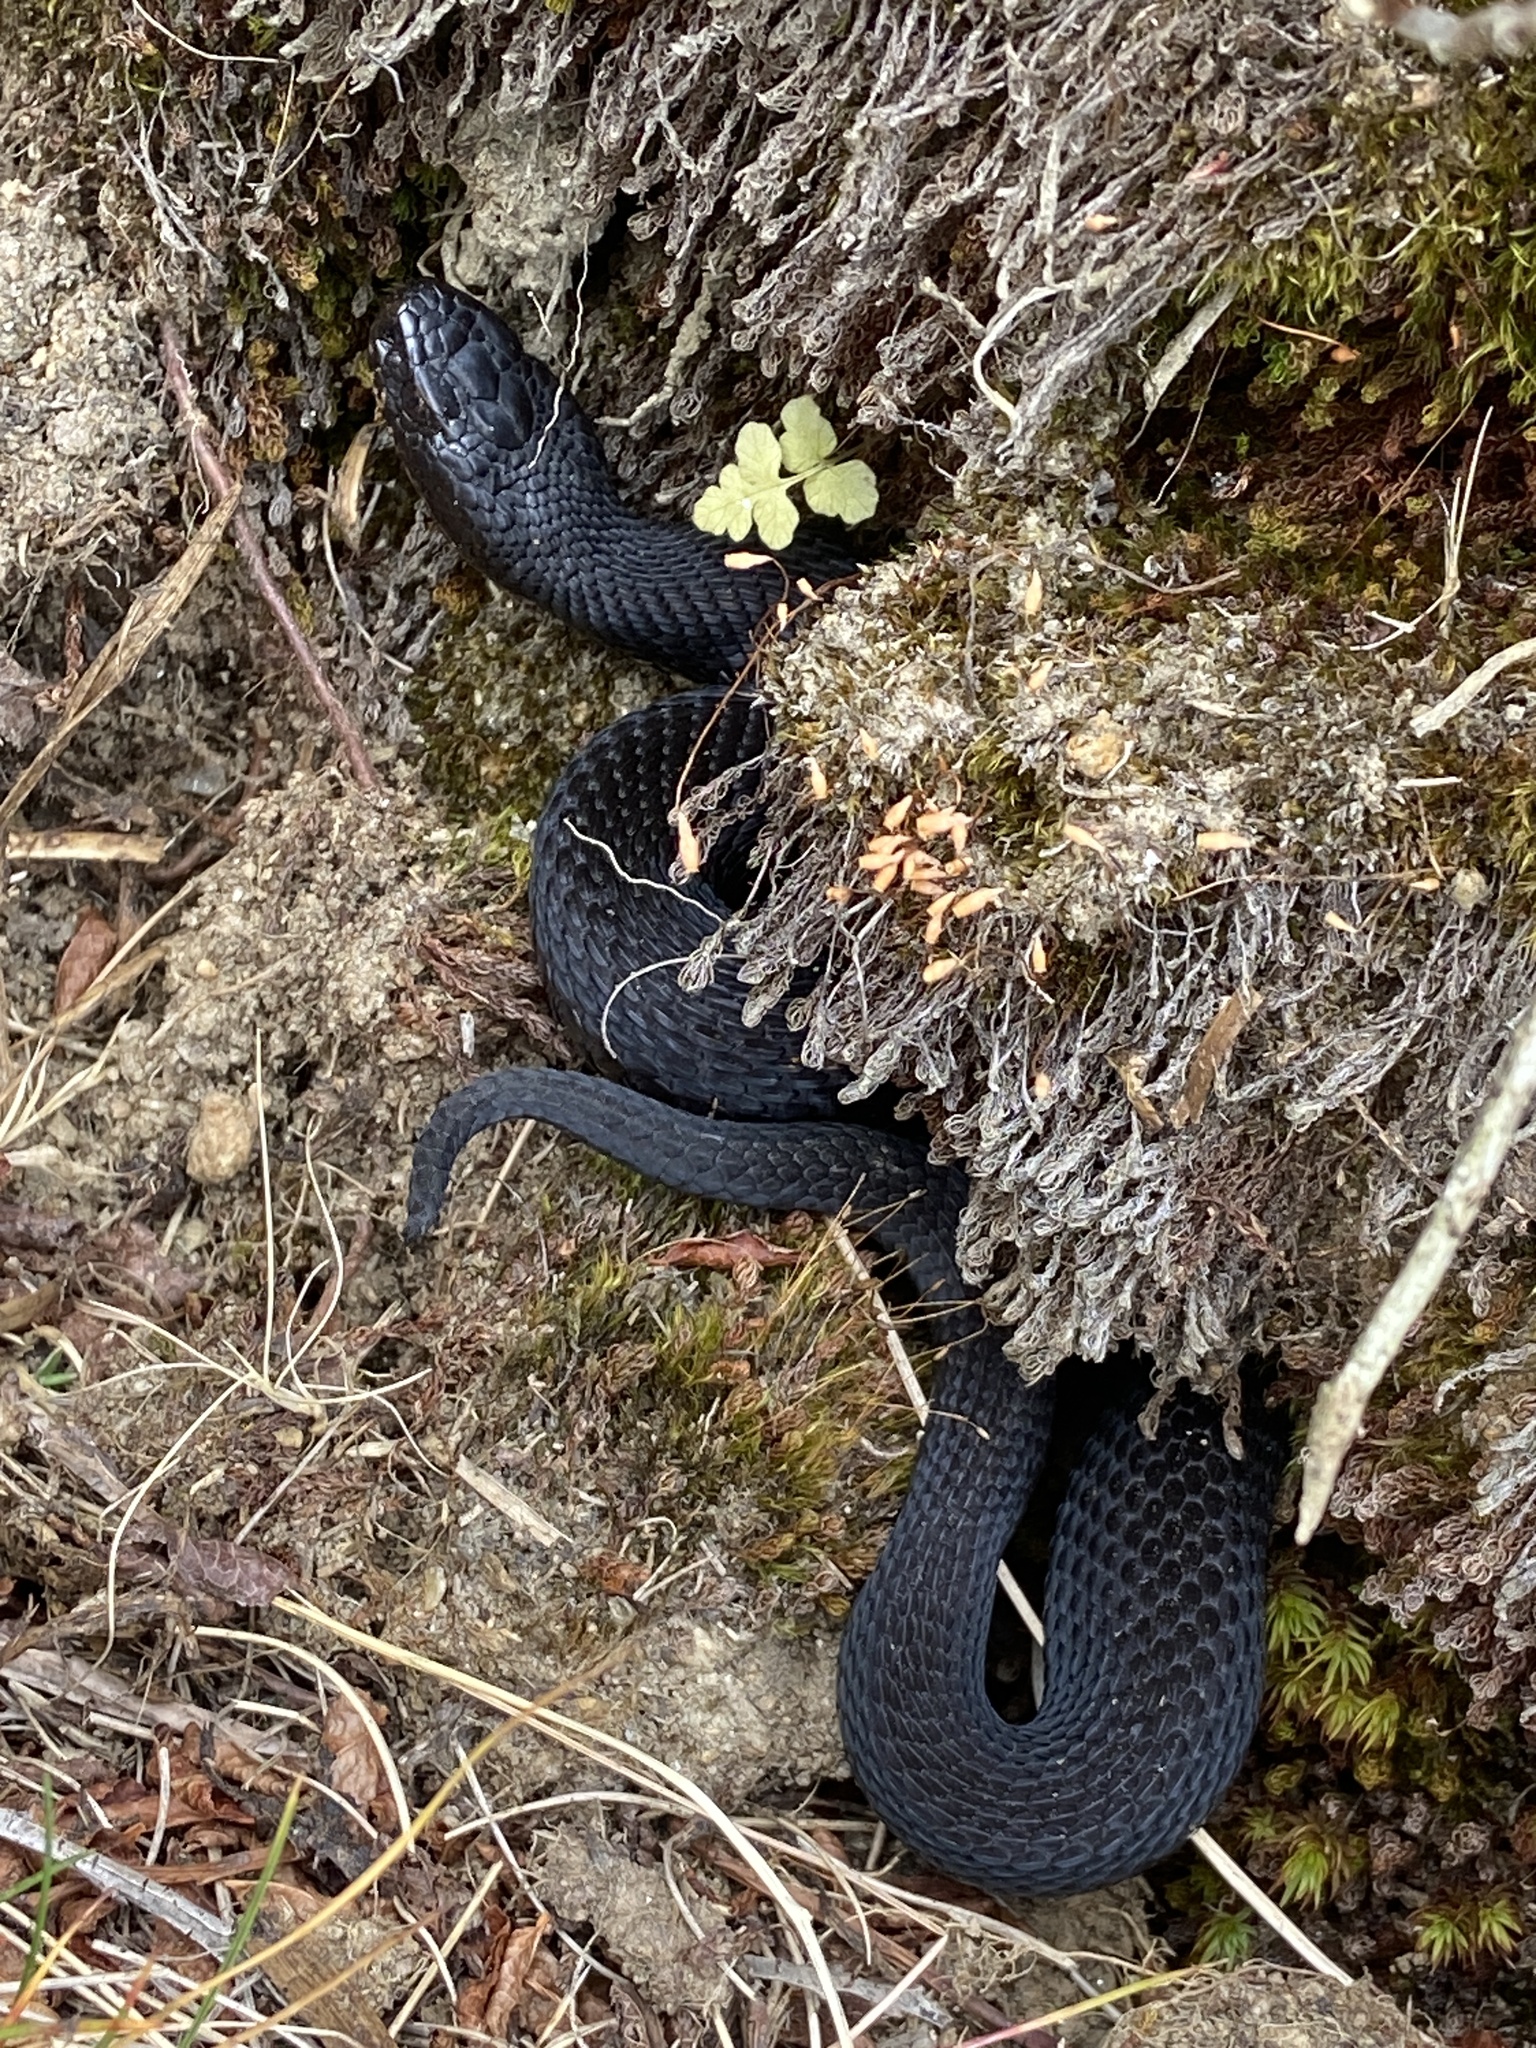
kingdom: Animalia
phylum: Chordata
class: Squamata
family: Viperidae
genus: Vipera
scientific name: Vipera berus
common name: Adder
